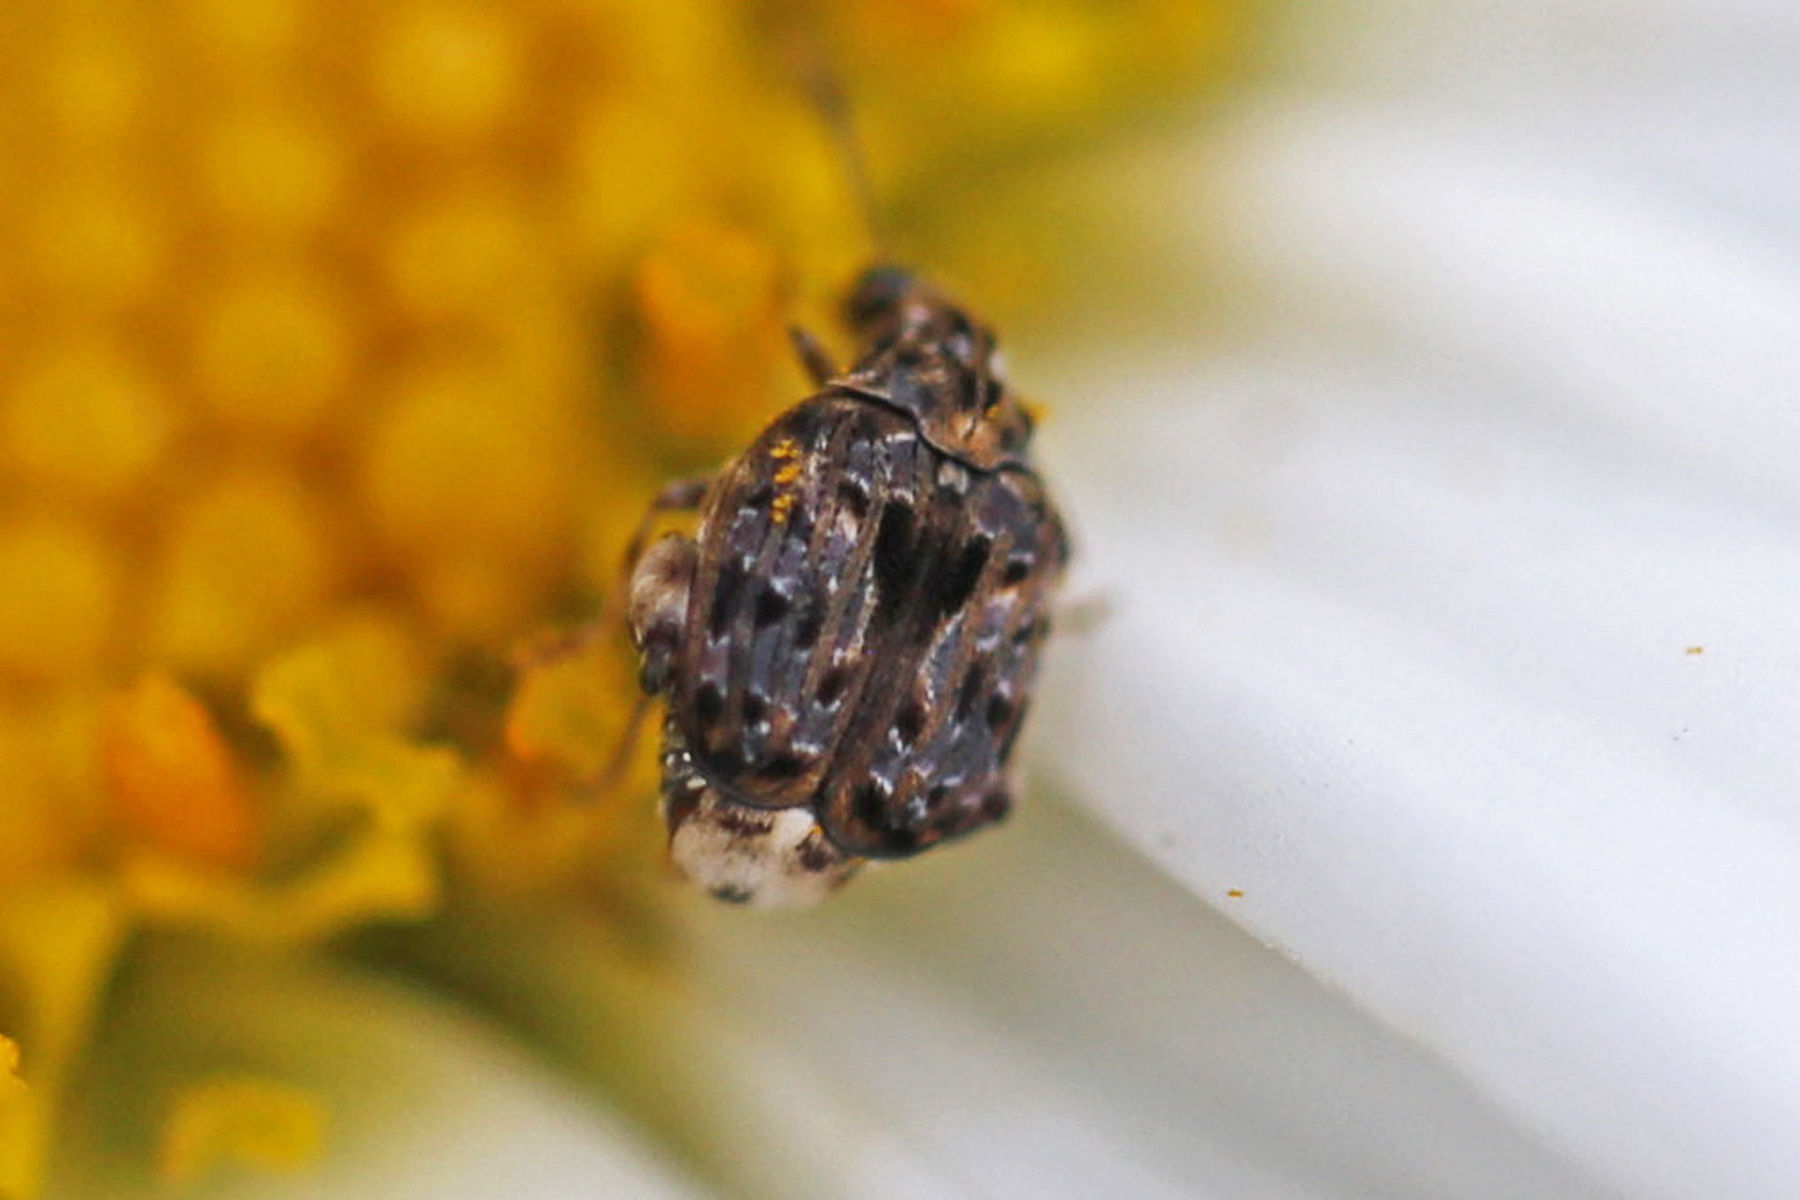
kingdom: Animalia
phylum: Arthropoda
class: Insecta
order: Coleoptera
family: Chrysomelidae
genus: Gibbobruchus
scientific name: Gibbobruchus mimus
